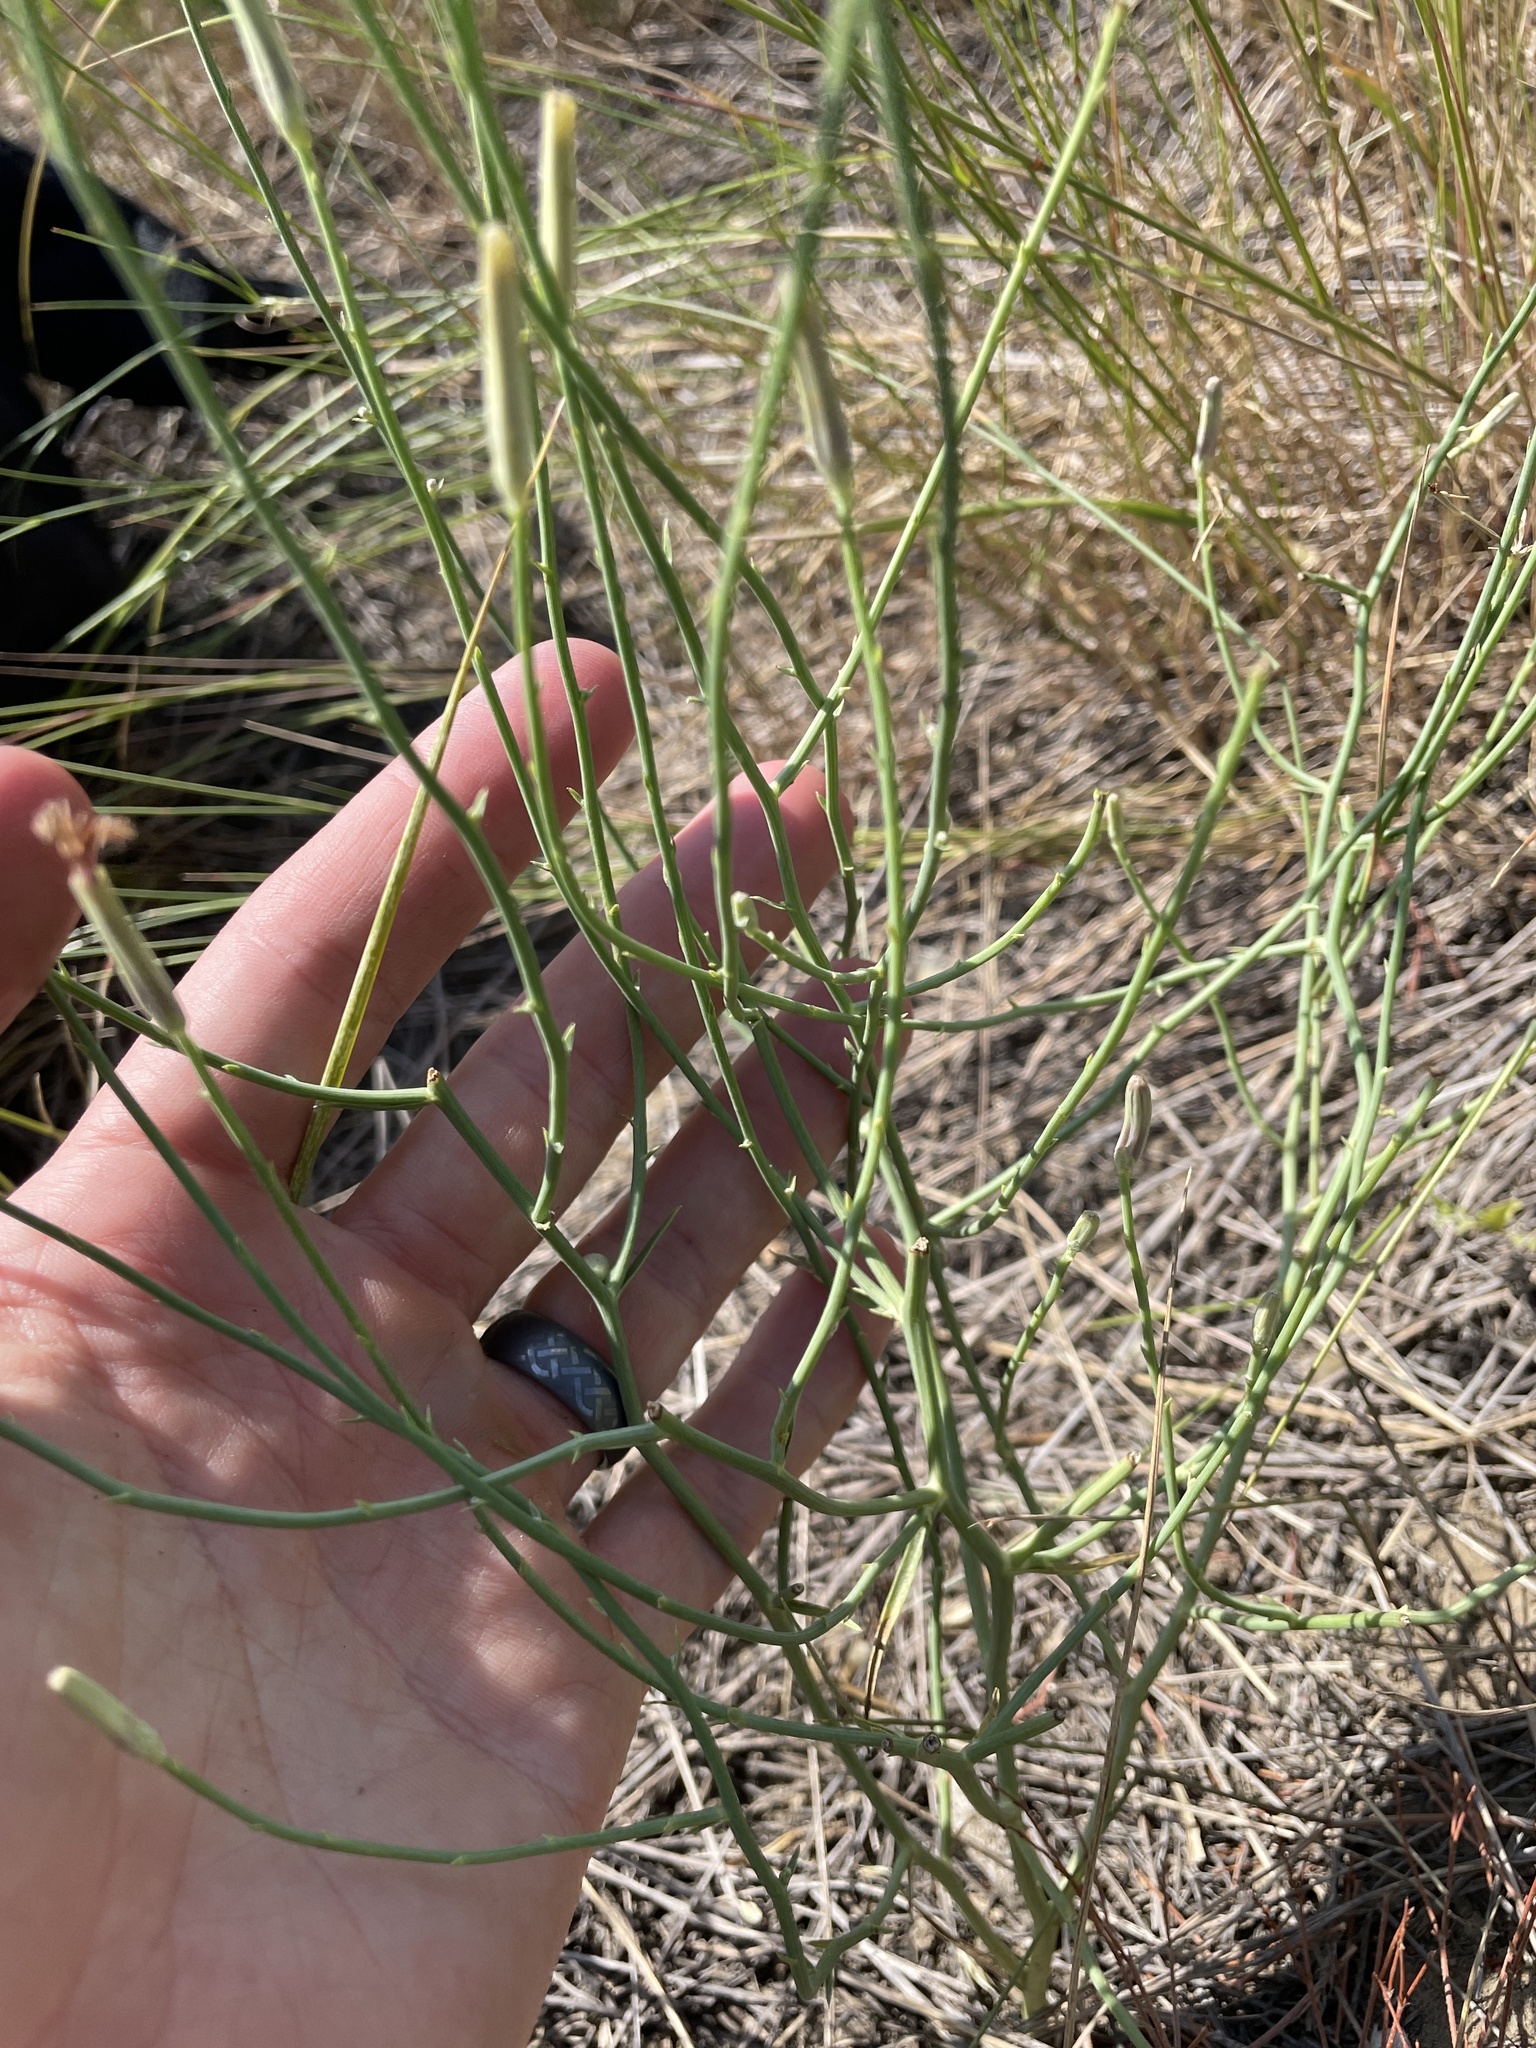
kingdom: Plantae
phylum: Tracheophyta
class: Magnoliopsida
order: Asterales
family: Asteraceae
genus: Lygodesmia
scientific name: Lygodesmia juncea
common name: Common skeletonweed
